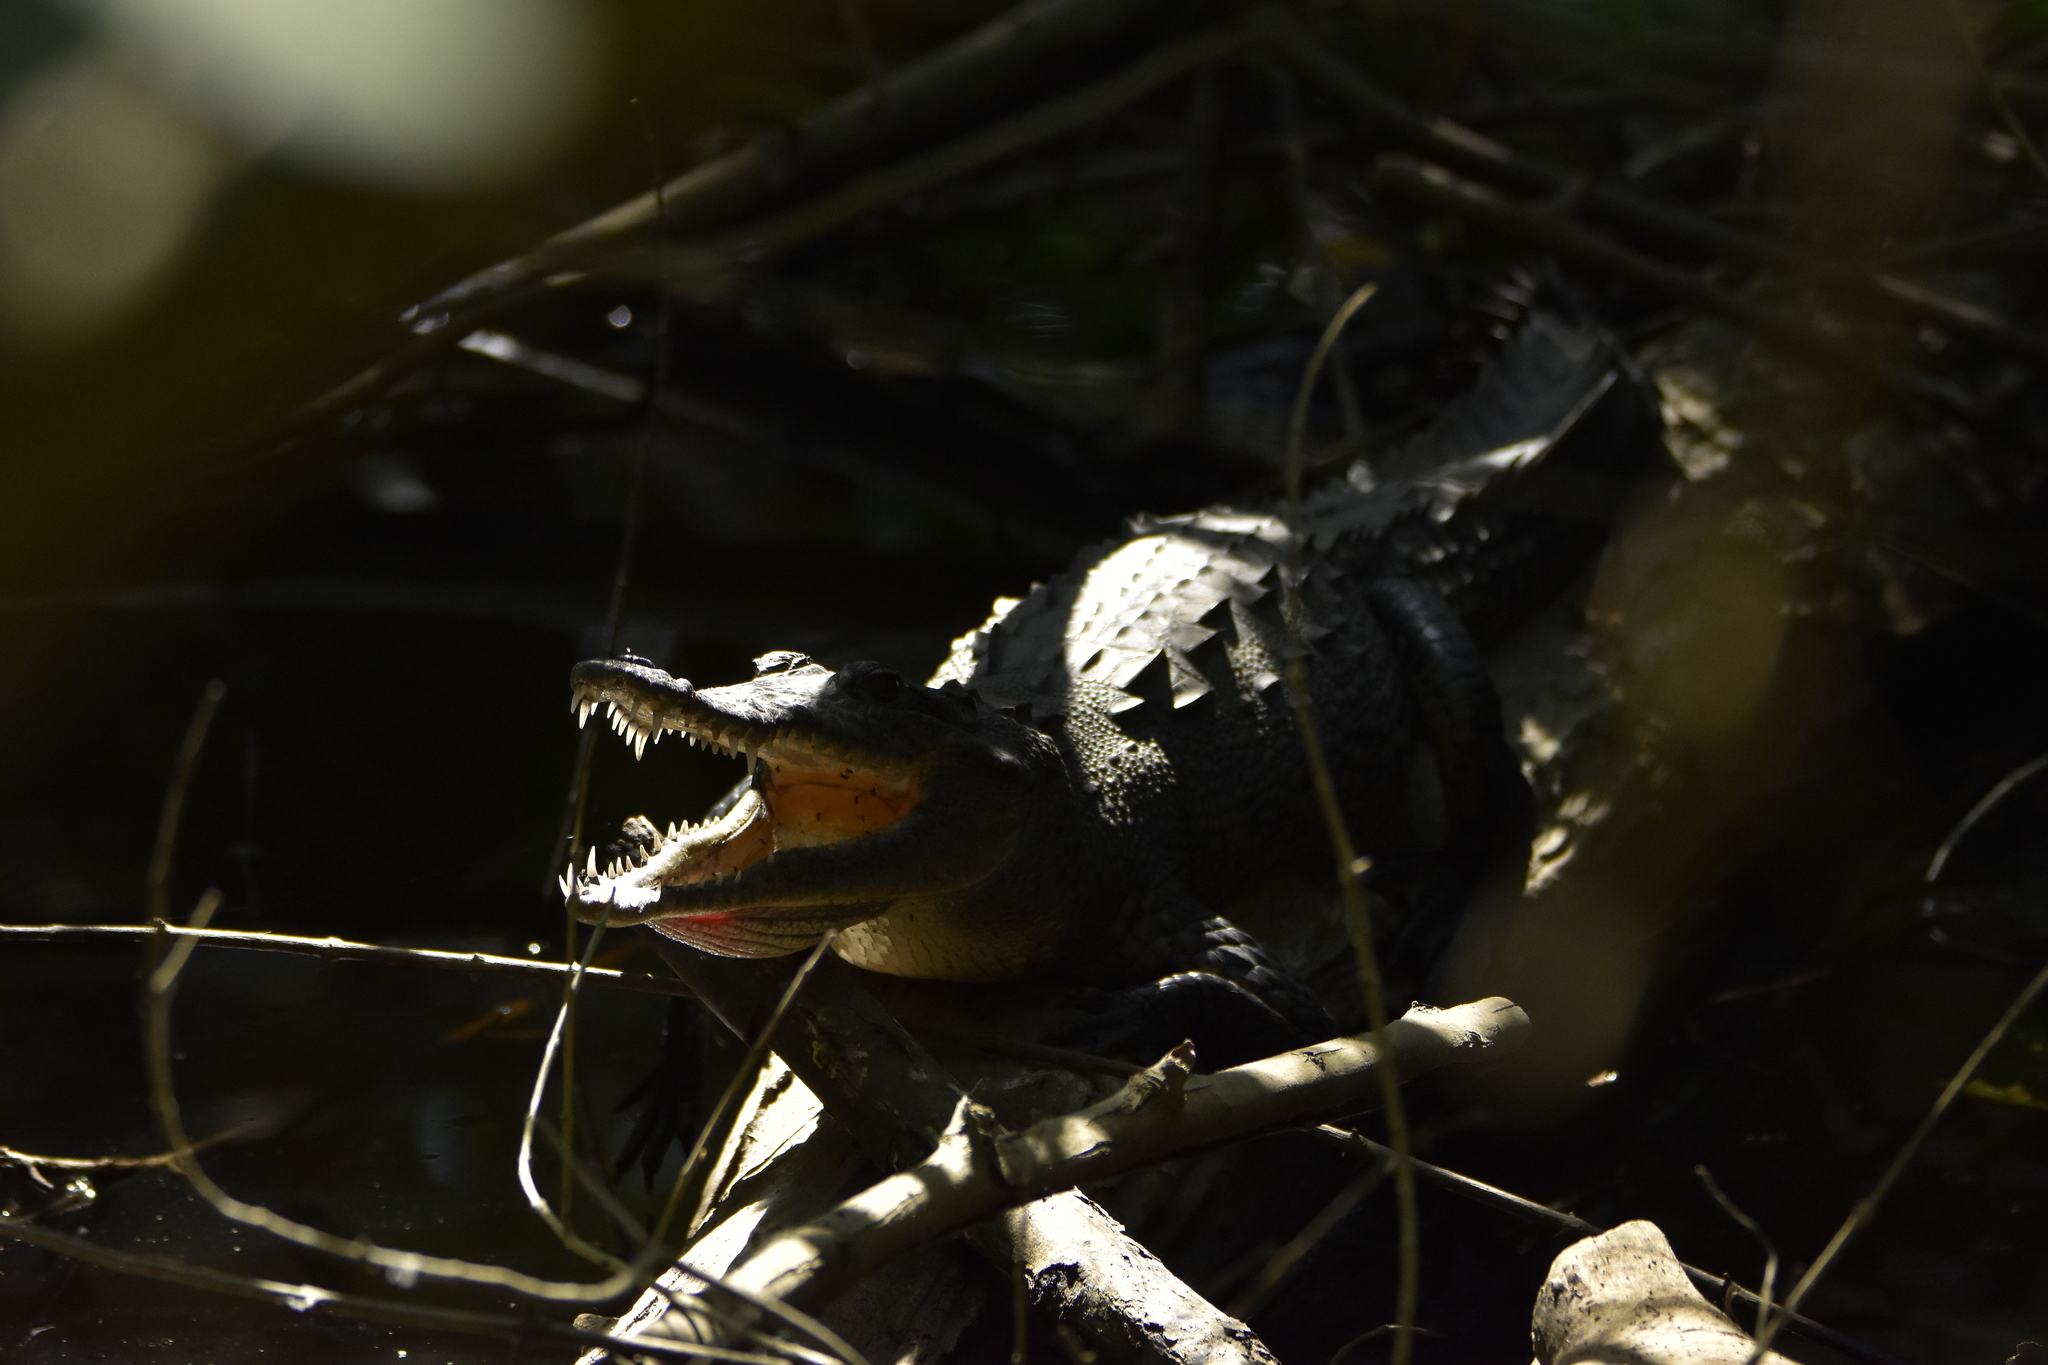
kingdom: Animalia
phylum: Chordata
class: Crocodylia
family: Crocodylidae
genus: Crocodylus
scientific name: Crocodylus acutus
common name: American crocodile
